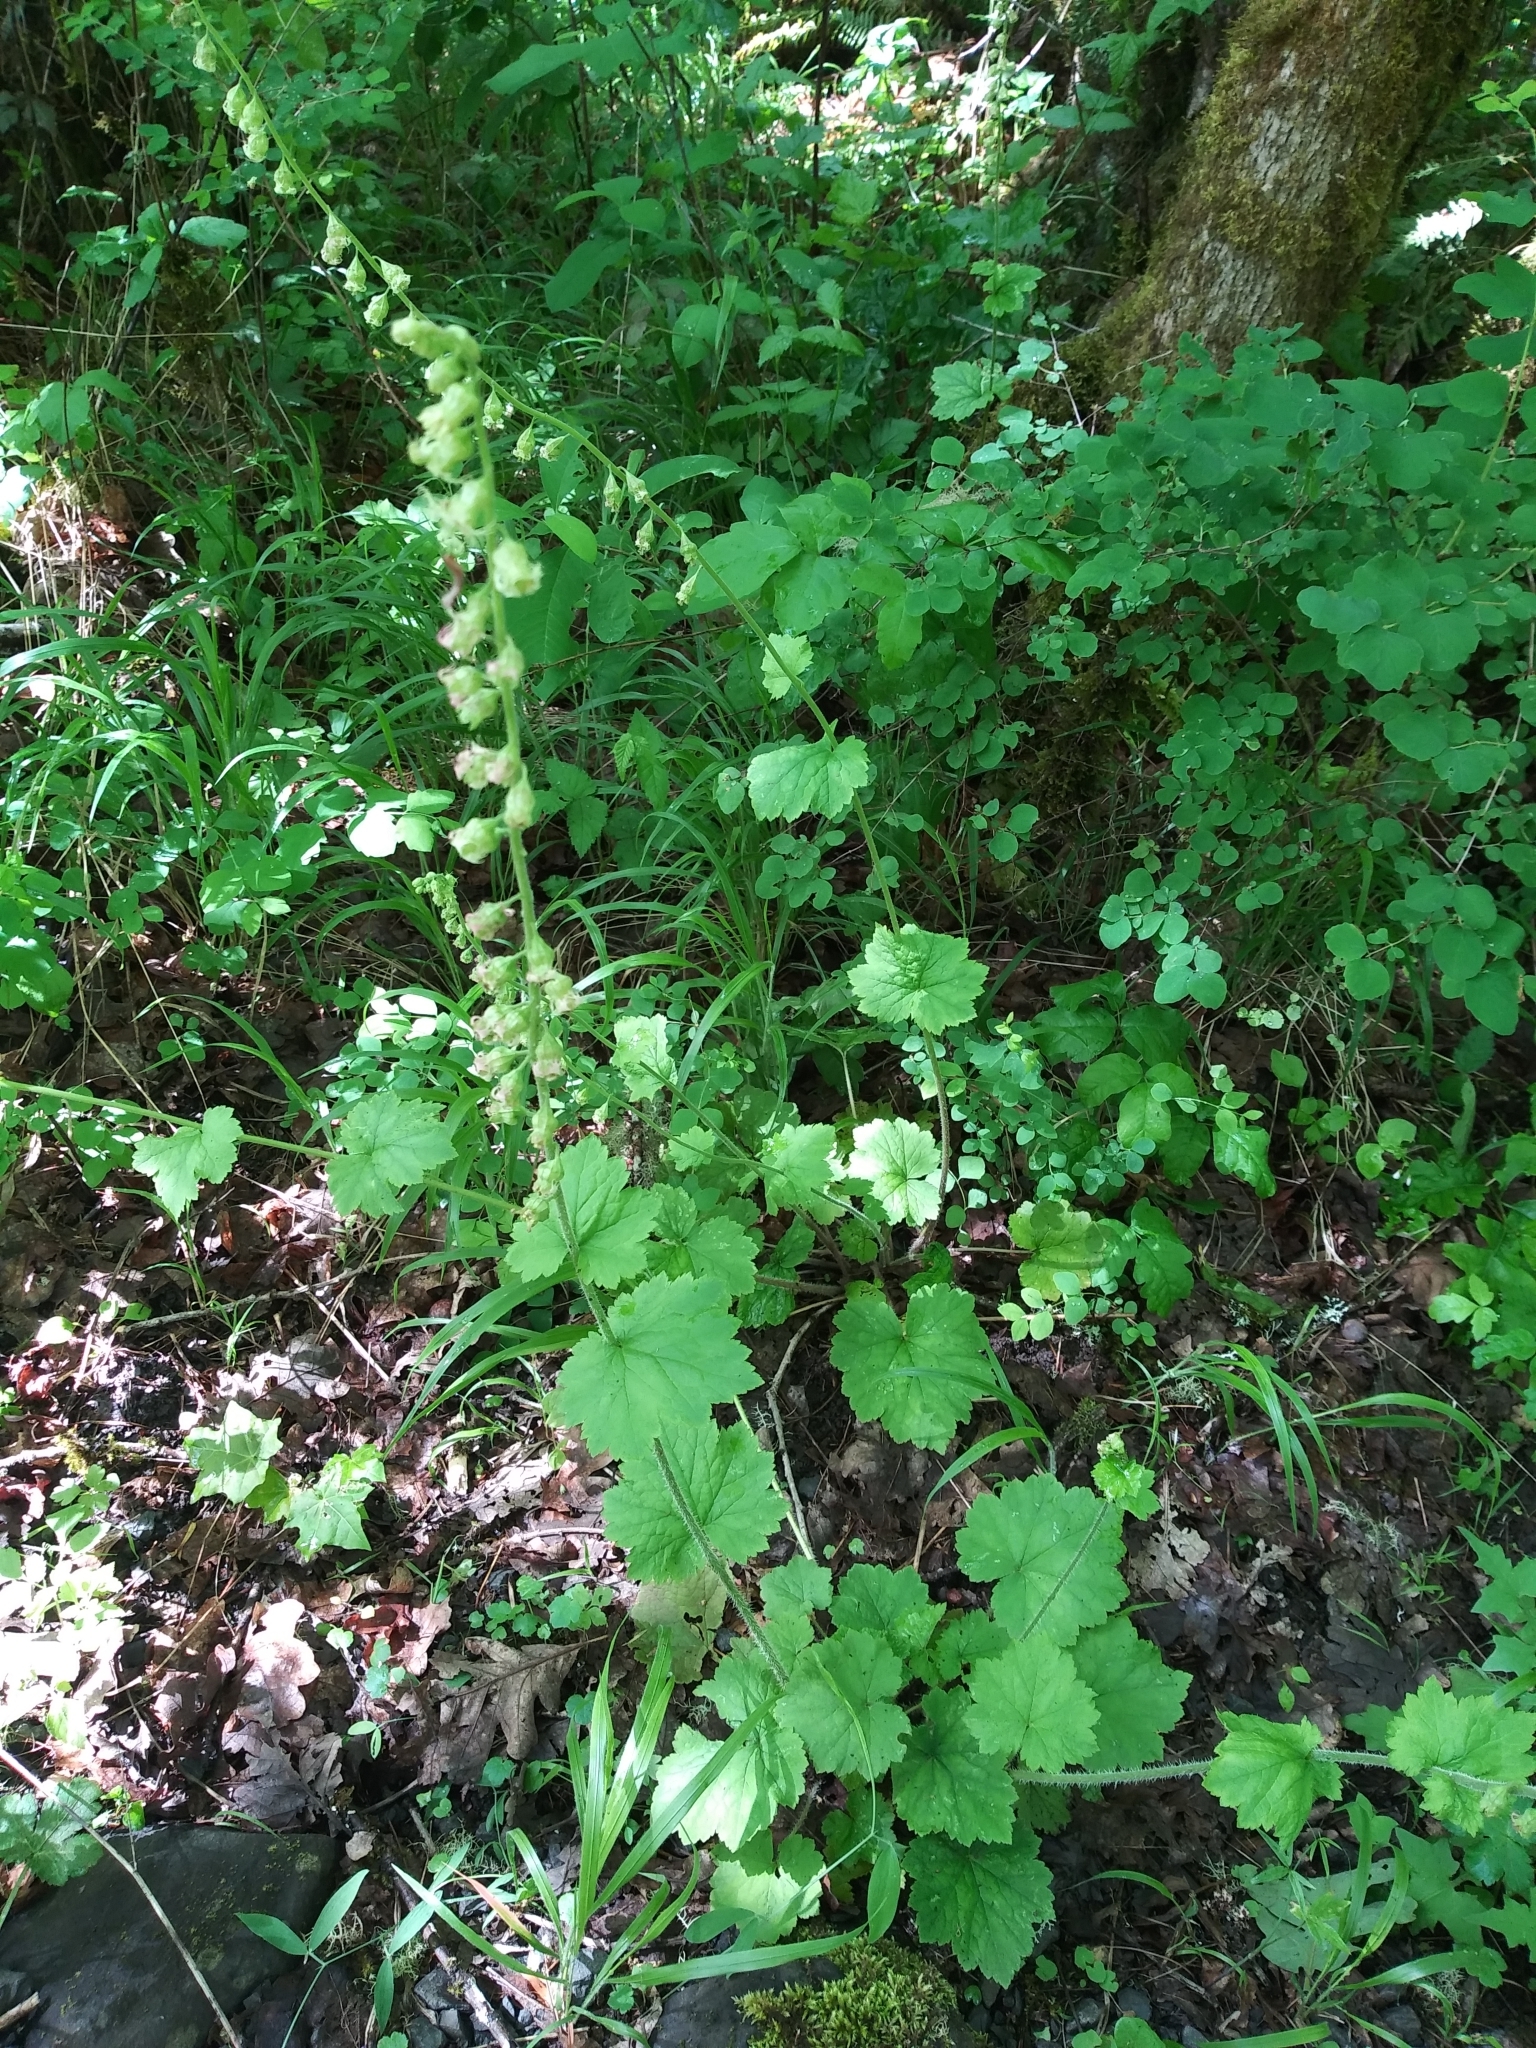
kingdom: Plantae
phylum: Tracheophyta
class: Magnoliopsida
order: Saxifragales
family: Saxifragaceae
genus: Tellima
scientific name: Tellima grandiflora
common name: Fringecups
